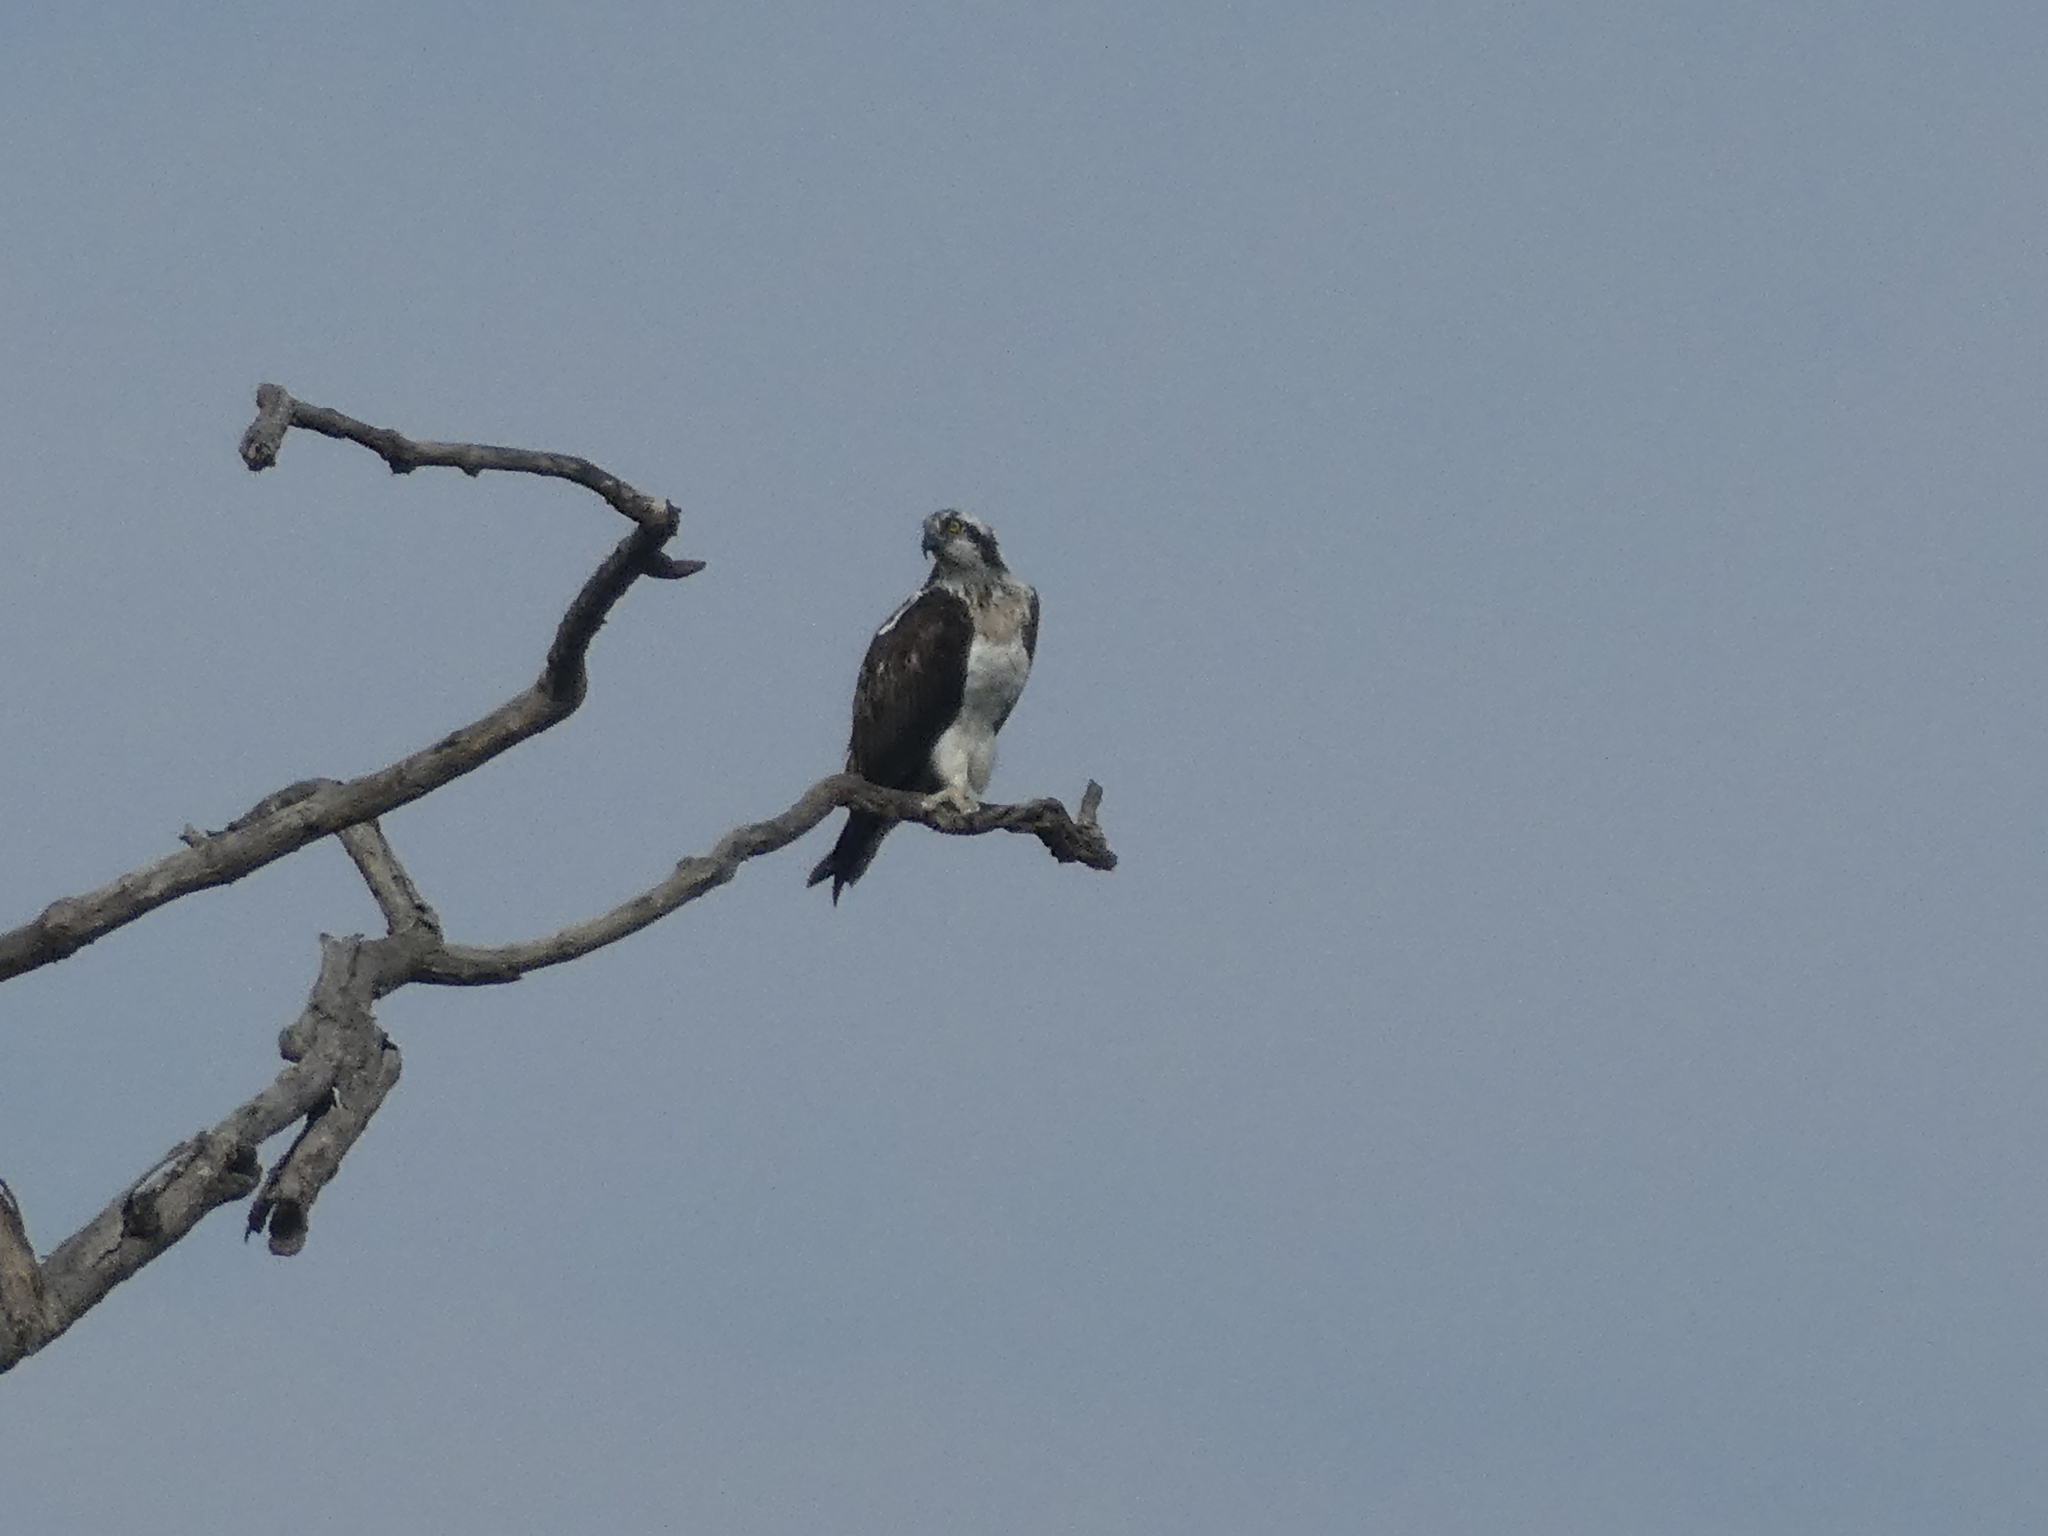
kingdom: Animalia
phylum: Chordata
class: Aves
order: Accipitriformes
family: Pandionidae
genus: Pandion
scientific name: Pandion haliaetus
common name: Osprey
